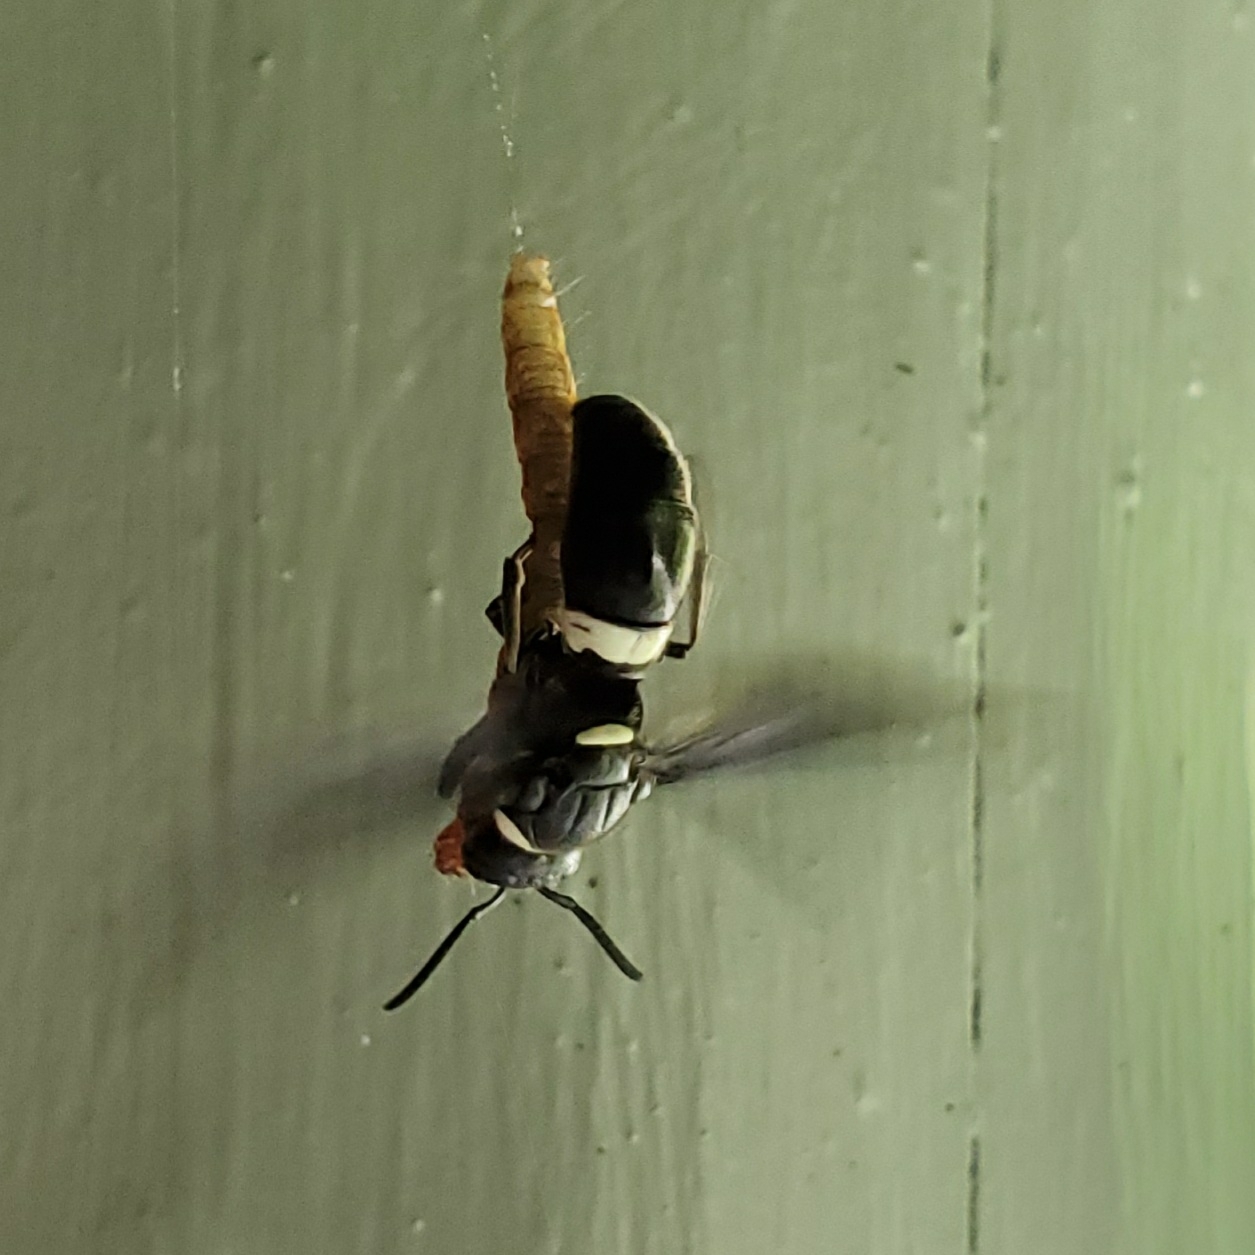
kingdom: Animalia
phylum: Arthropoda
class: Insecta
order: Hymenoptera
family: Eumenidae
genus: Monobia
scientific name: Monobia quadridens
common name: Four-toothed mason wasp
